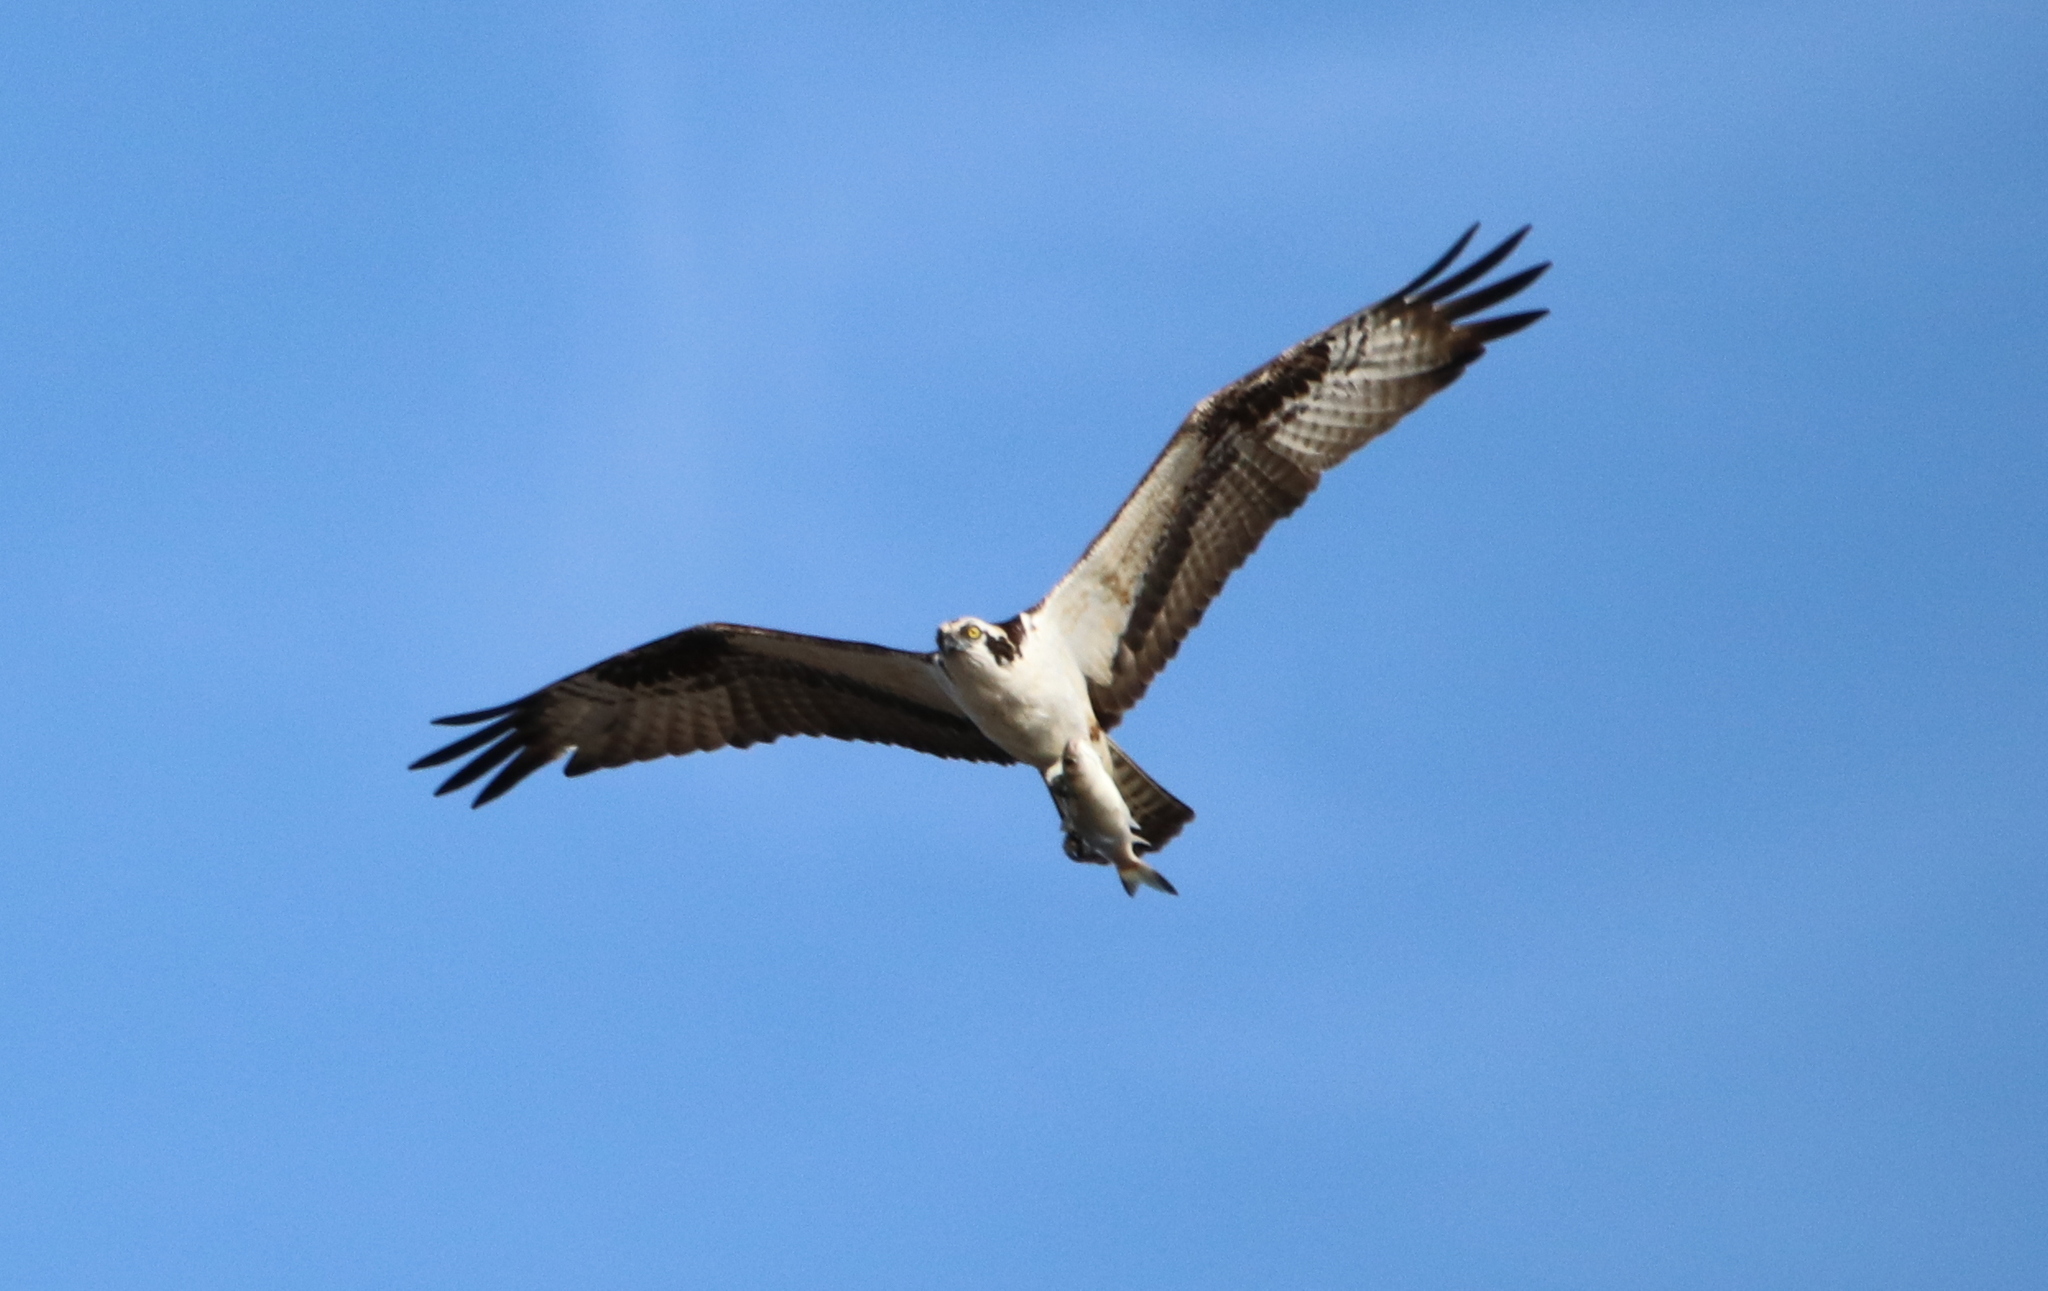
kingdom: Animalia
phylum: Chordata
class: Aves
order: Accipitriformes
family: Pandionidae
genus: Pandion
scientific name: Pandion haliaetus
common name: Osprey
